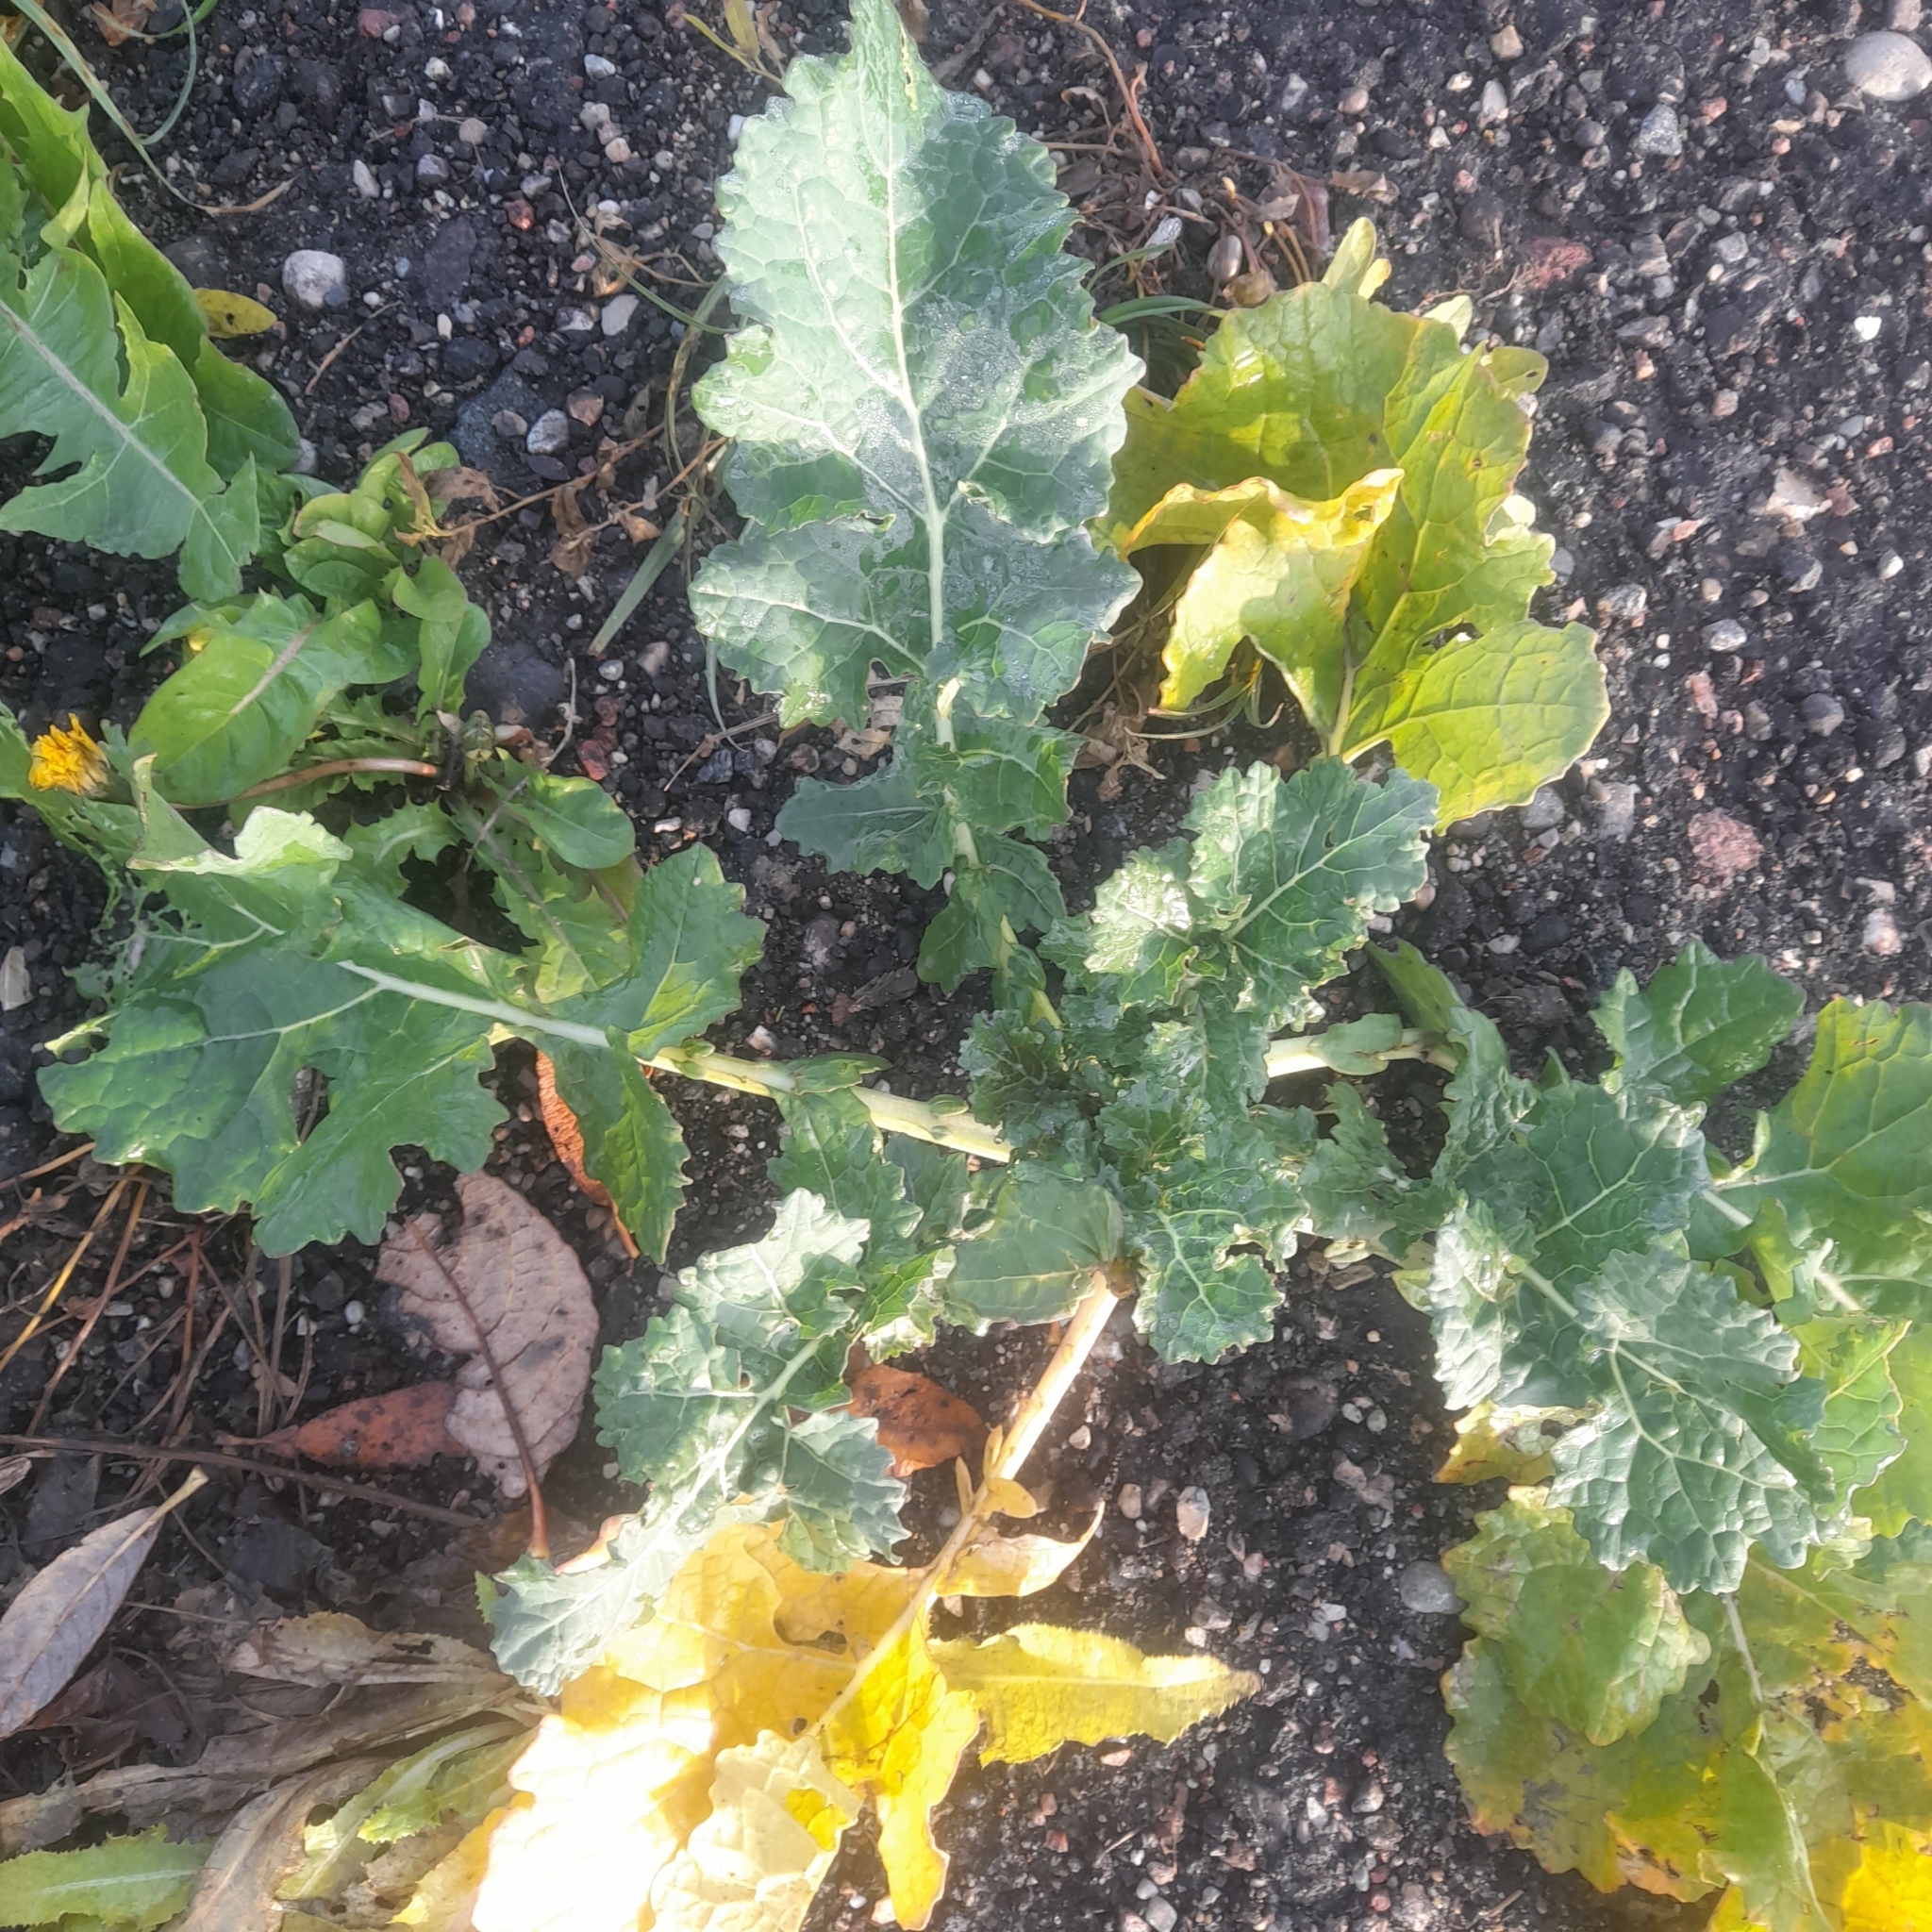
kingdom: Plantae
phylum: Tracheophyta
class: Magnoliopsida
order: Brassicales
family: Brassicaceae
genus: Brassica
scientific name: Brassica napus
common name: Rape
